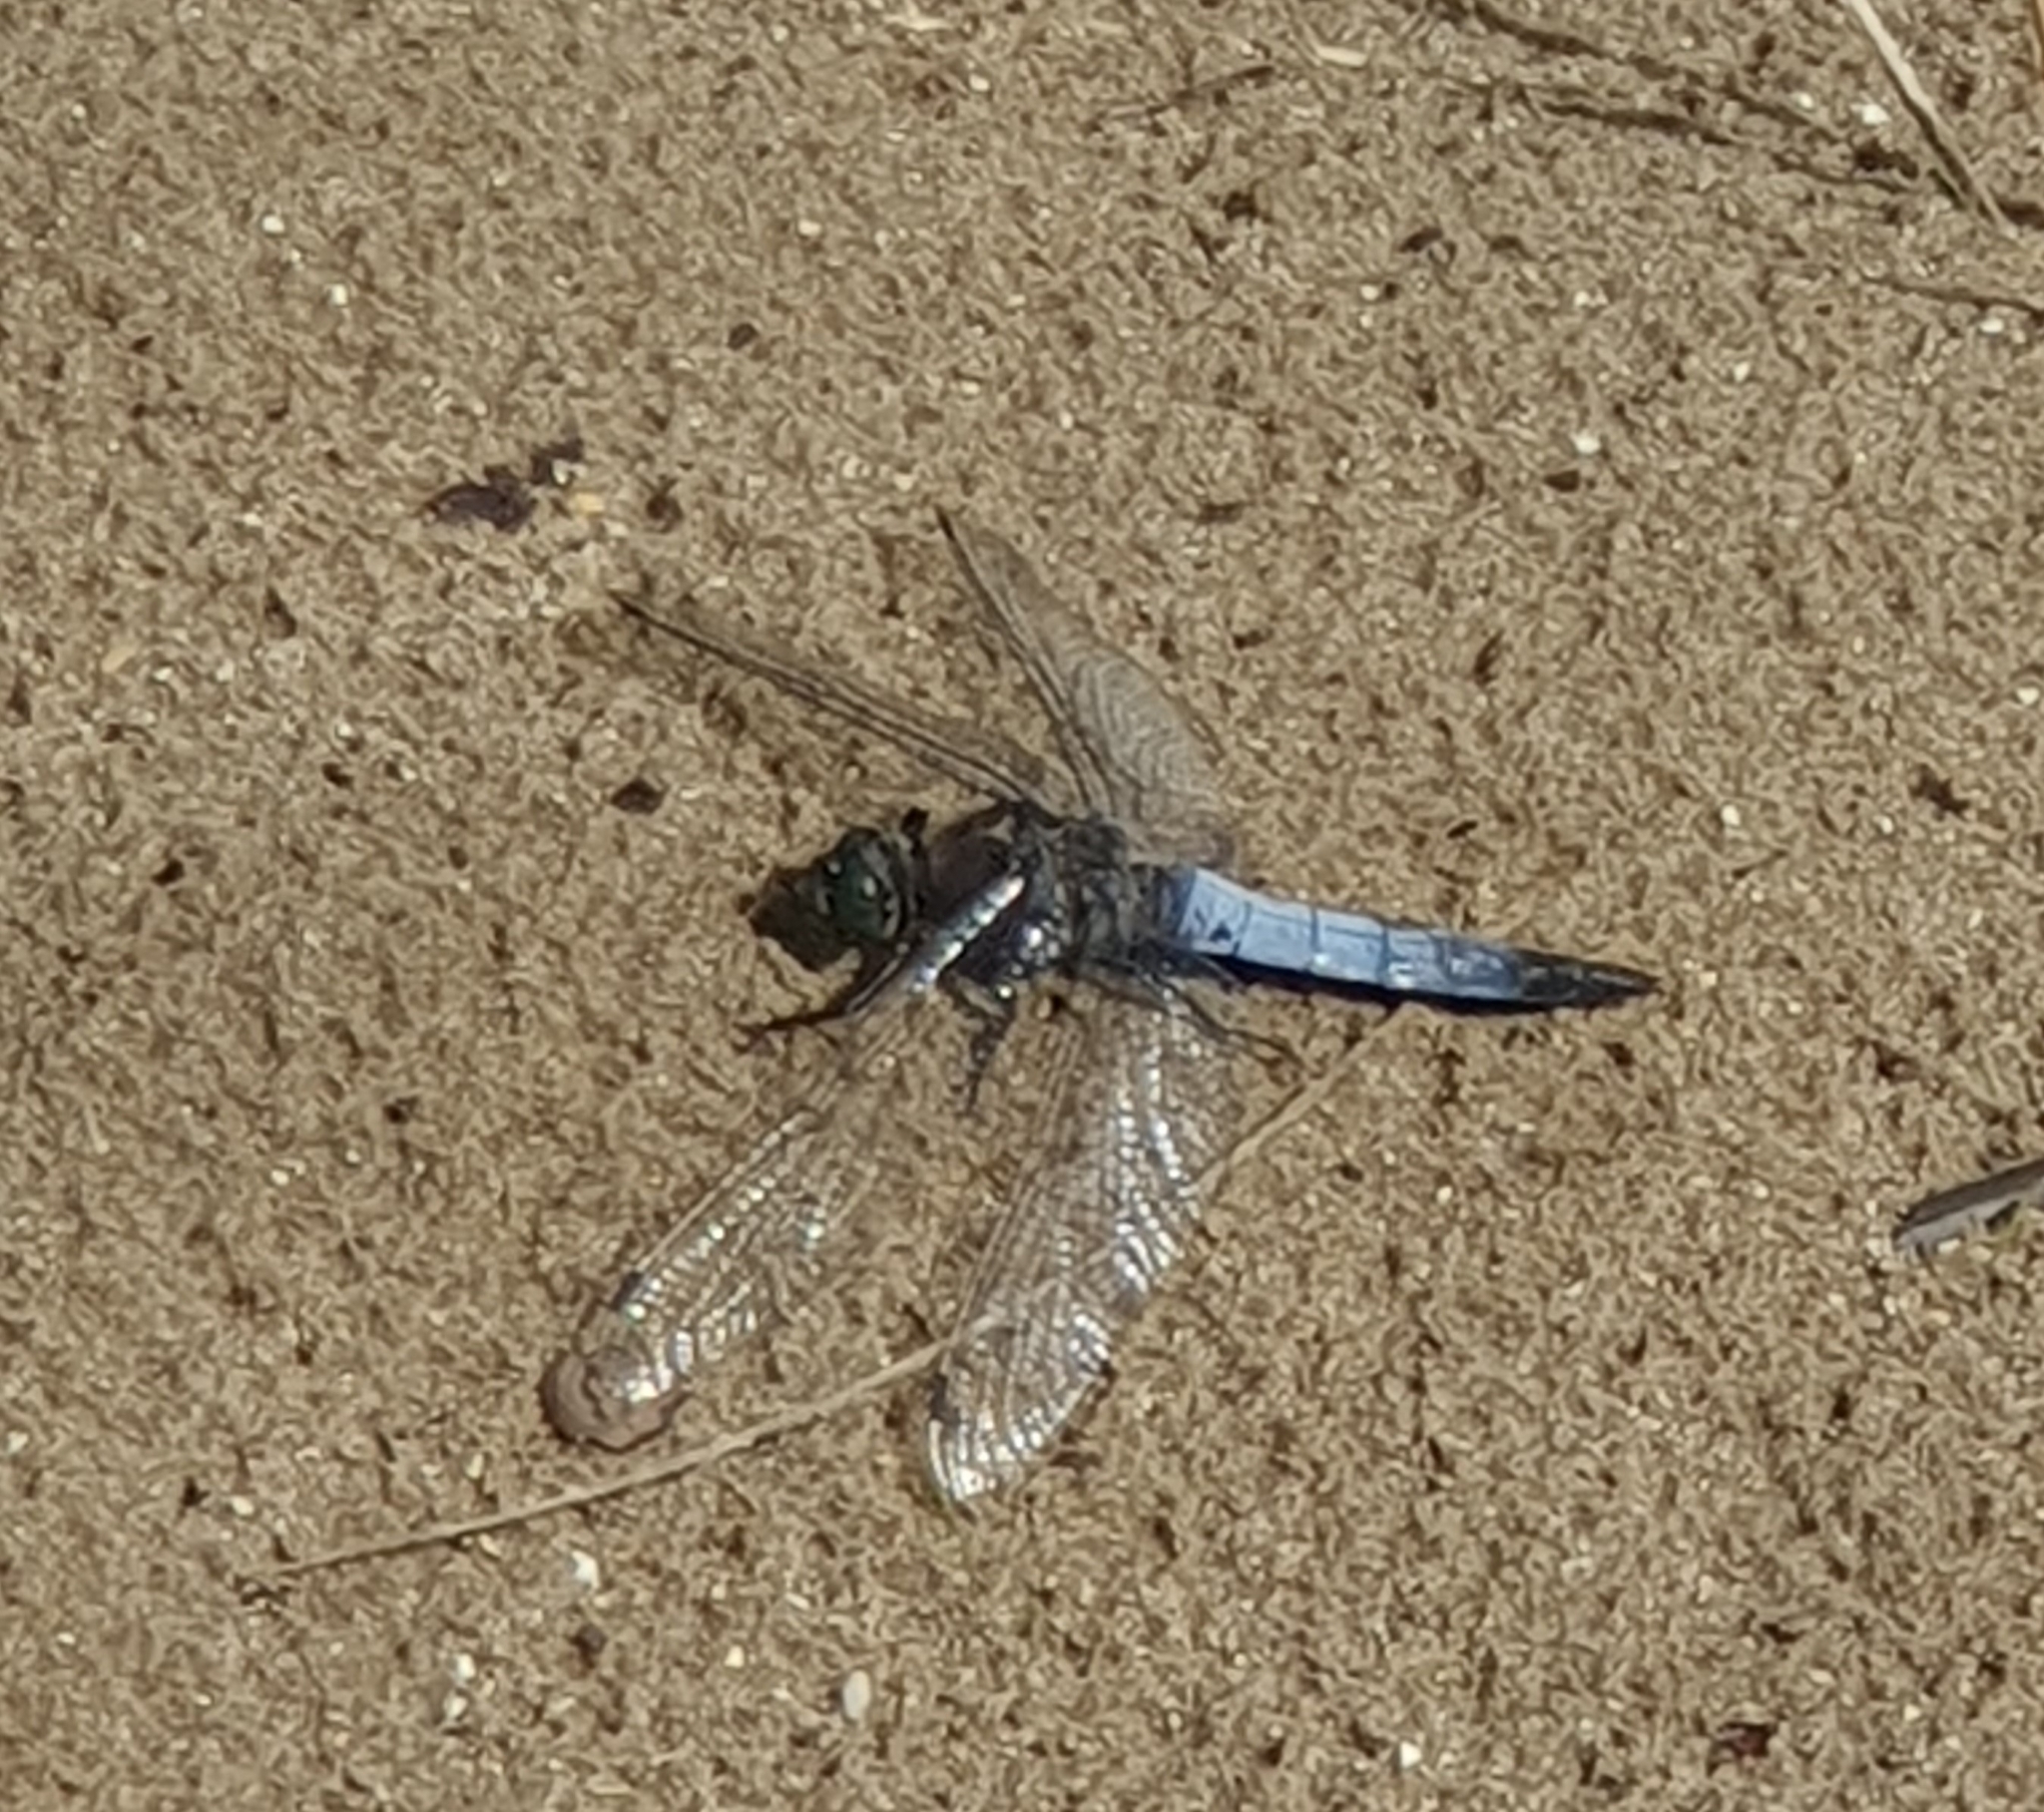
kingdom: Animalia
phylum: Arthropoda
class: Insecta
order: Odonata
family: Libellulidae
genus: Orthetrum
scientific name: Orthetrum cancellatum
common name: Black-tailed skimmer
